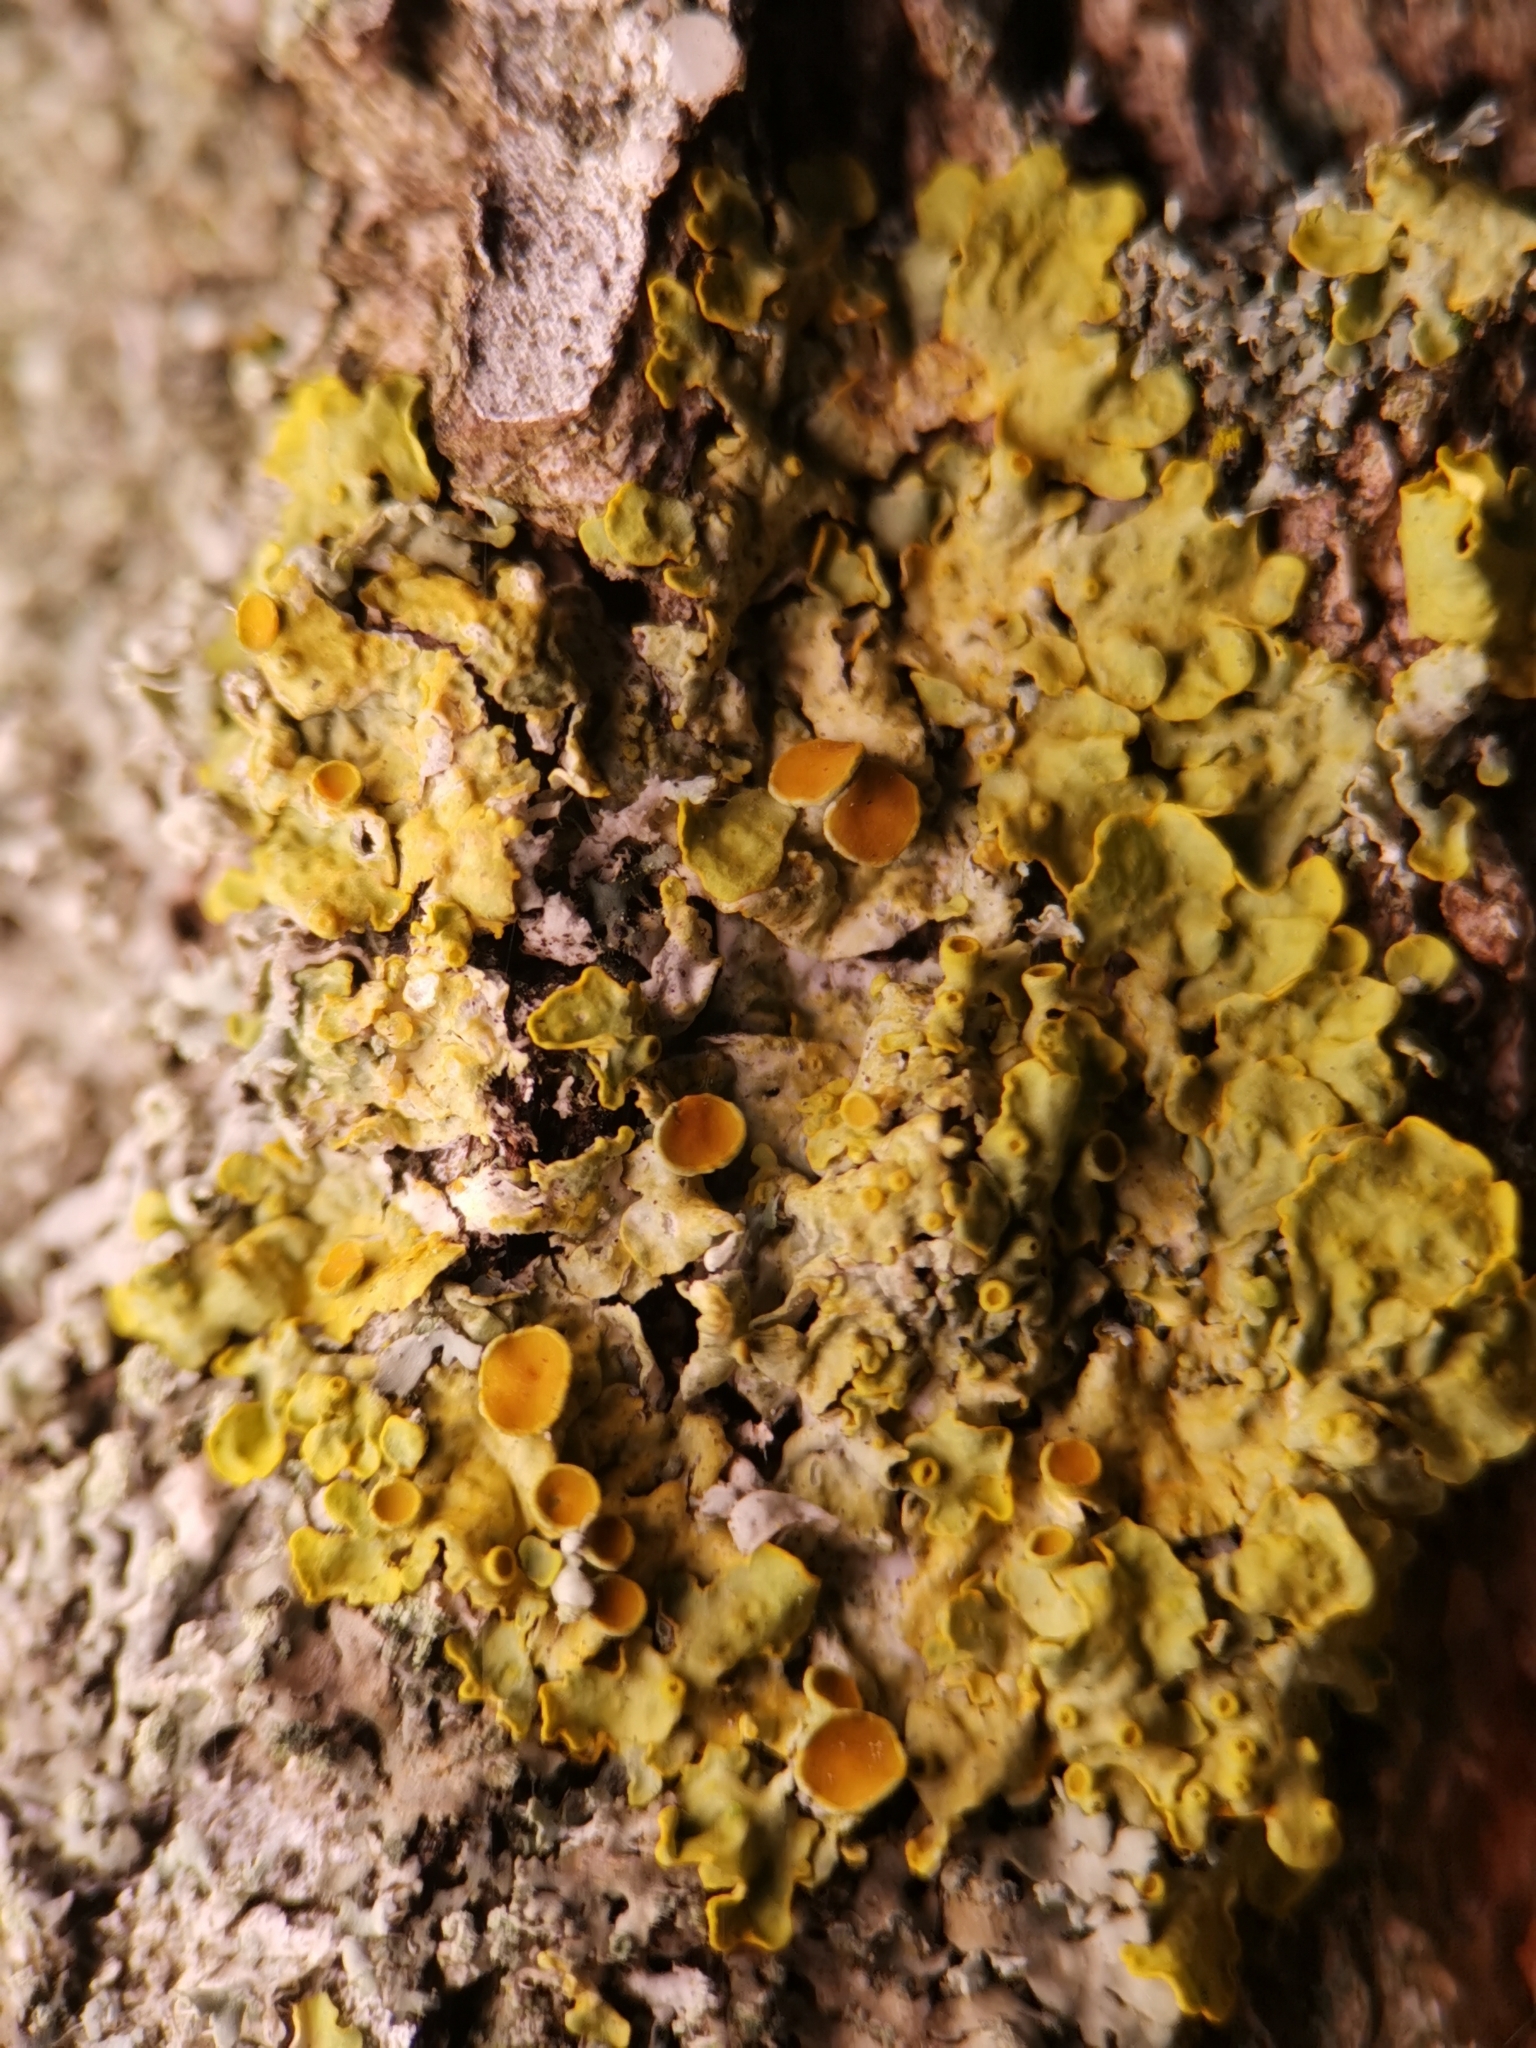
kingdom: Fungi
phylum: Ascomycota
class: Lecanoromycetes
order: Teloschistales
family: Teloschistaceae
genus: Xanthoria
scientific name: Xanthoria parietina
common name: Common orange lichen
